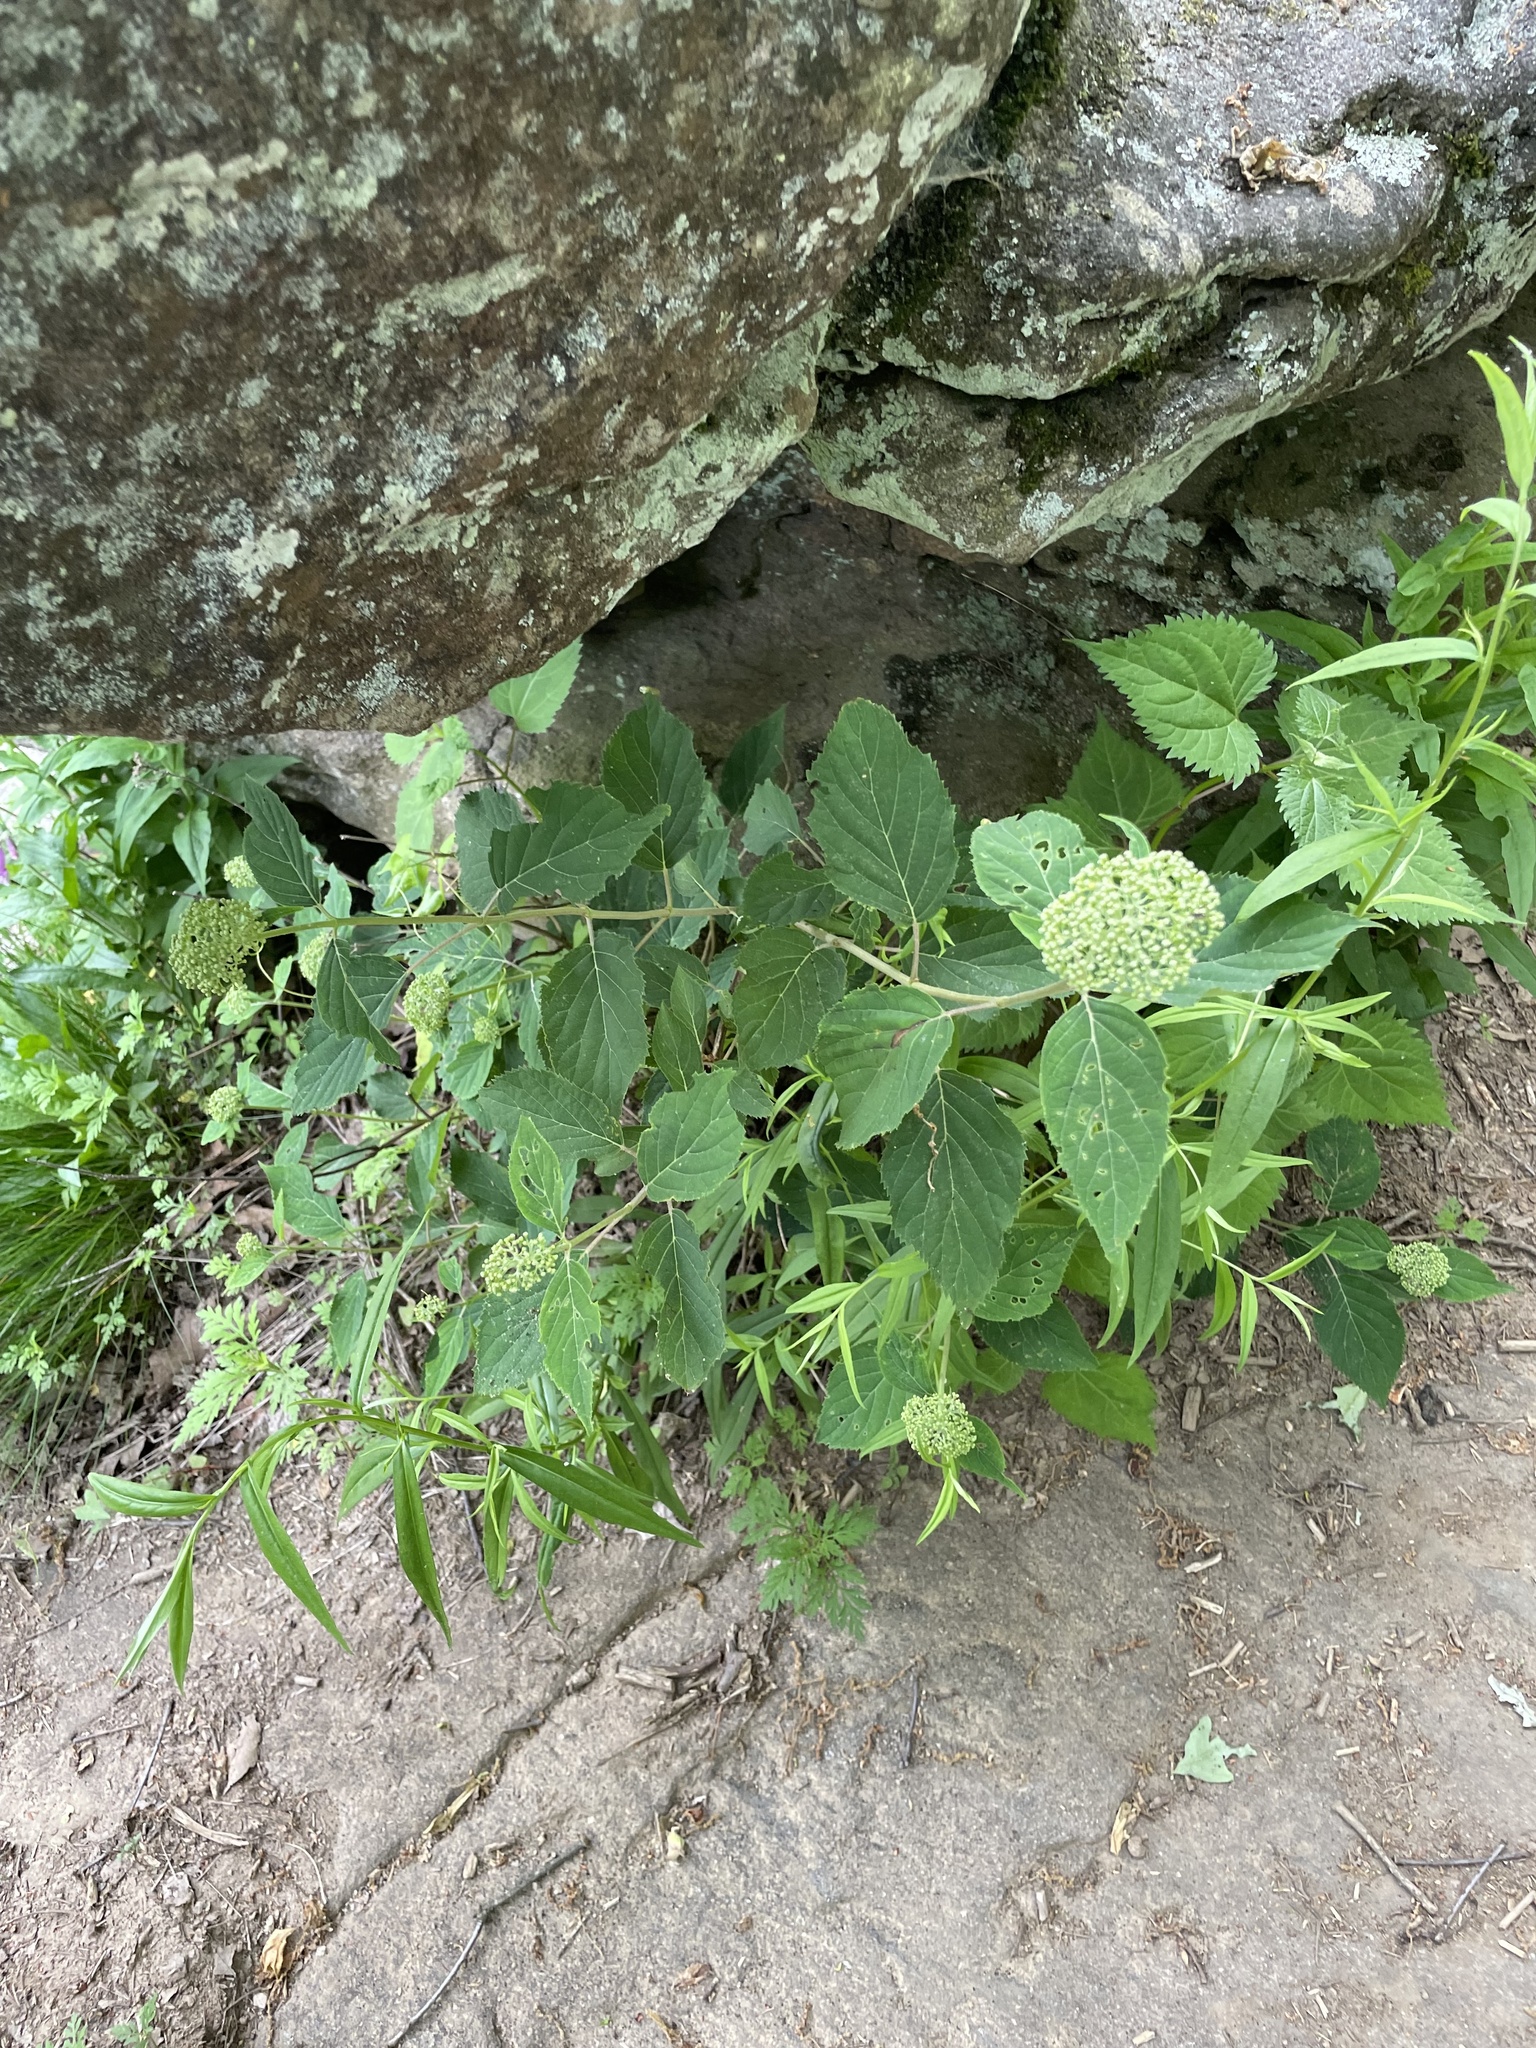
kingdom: Plantae
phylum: Tracheophyta
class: Magnoliopsida
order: Cornales
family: Hydrangeaceae
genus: Hydrangea
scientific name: Hydrangea arborescens
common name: Sevenbark
